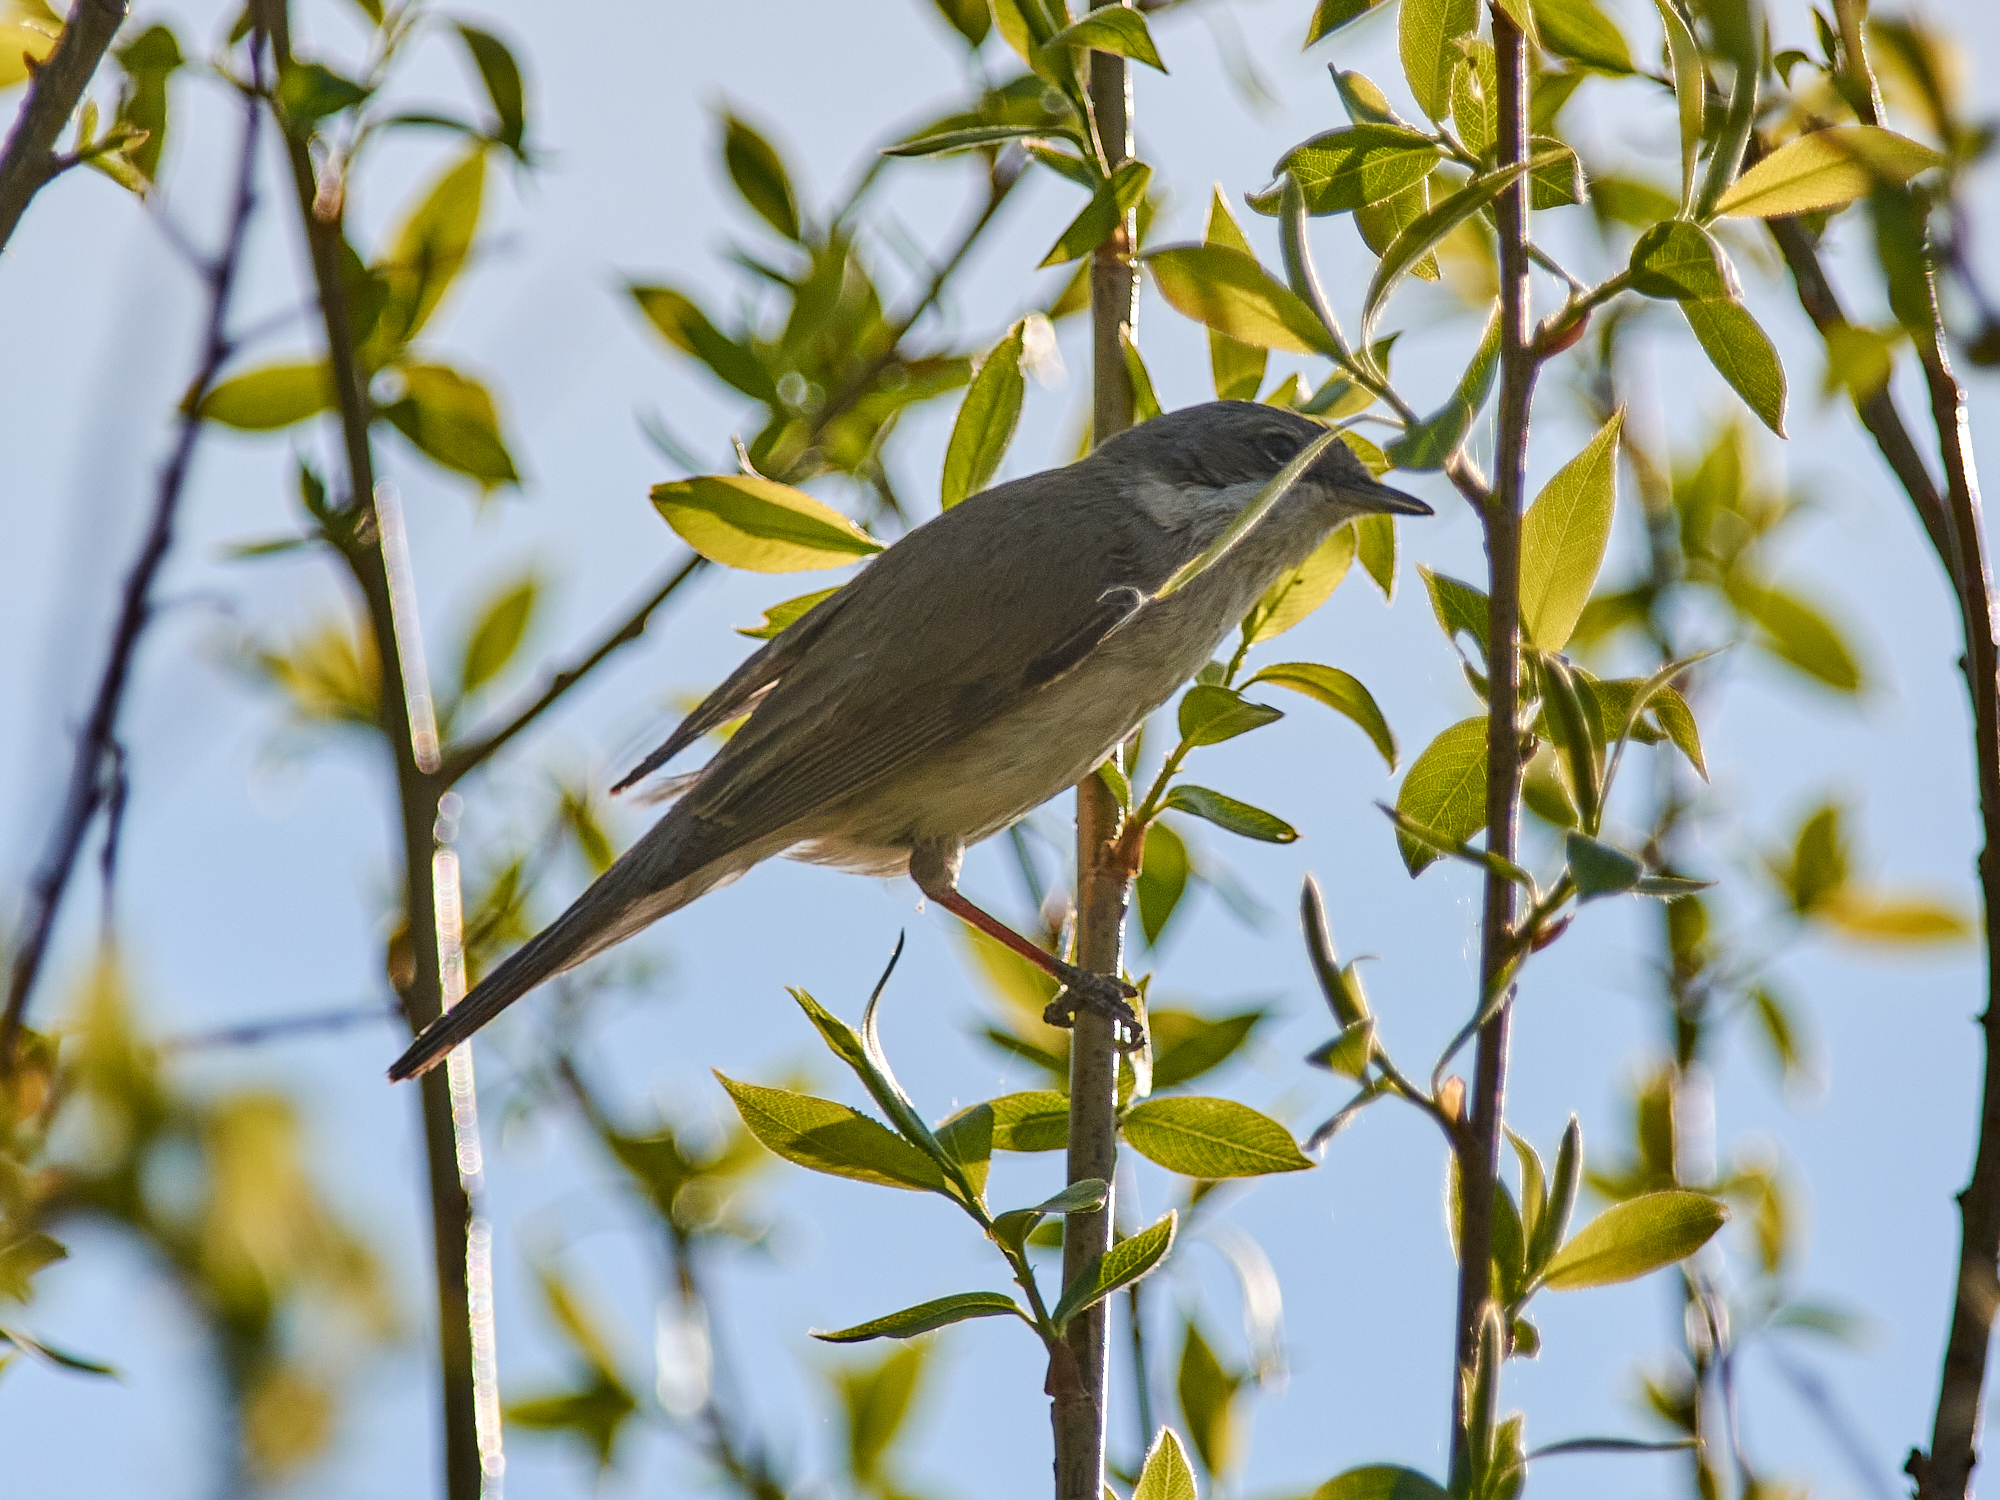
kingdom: Animalia
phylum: Chordata
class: Aves
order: Passeriformes
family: Sylviidae
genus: Sylvia
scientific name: Sylvia curruca
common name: Lesser whitethroat
